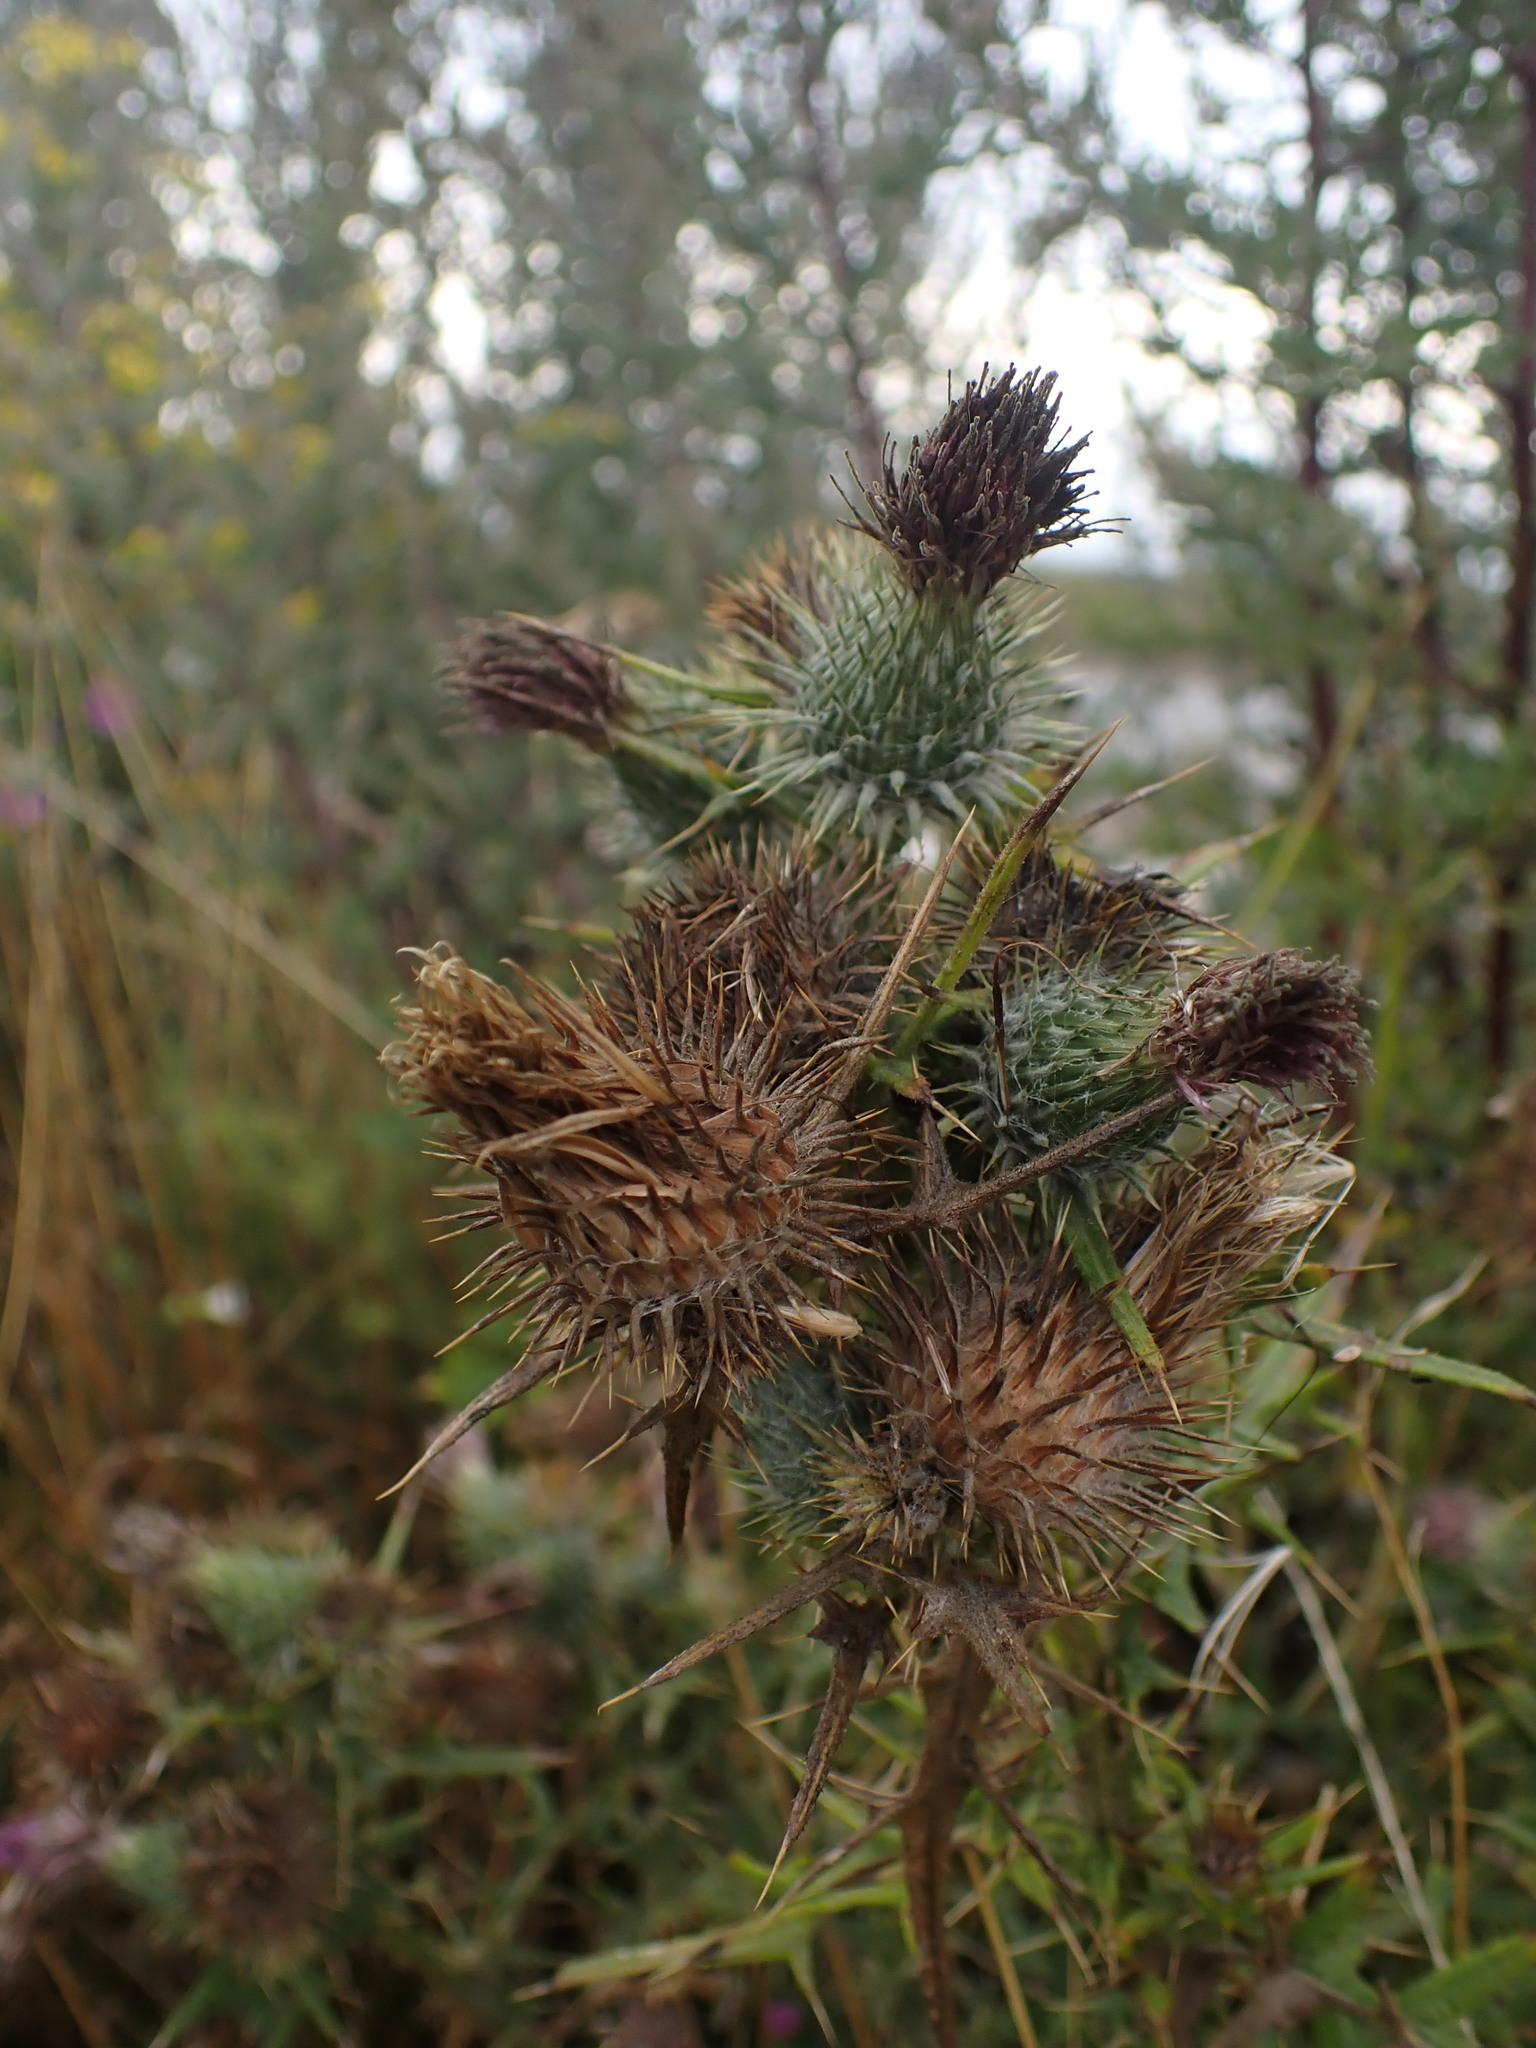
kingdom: Plantae
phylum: Tracheophyta
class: Magnoliopsida
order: Asterales
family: Asteraceae
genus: Cirsium
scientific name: Cirsium vulgare
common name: Bull thistle
